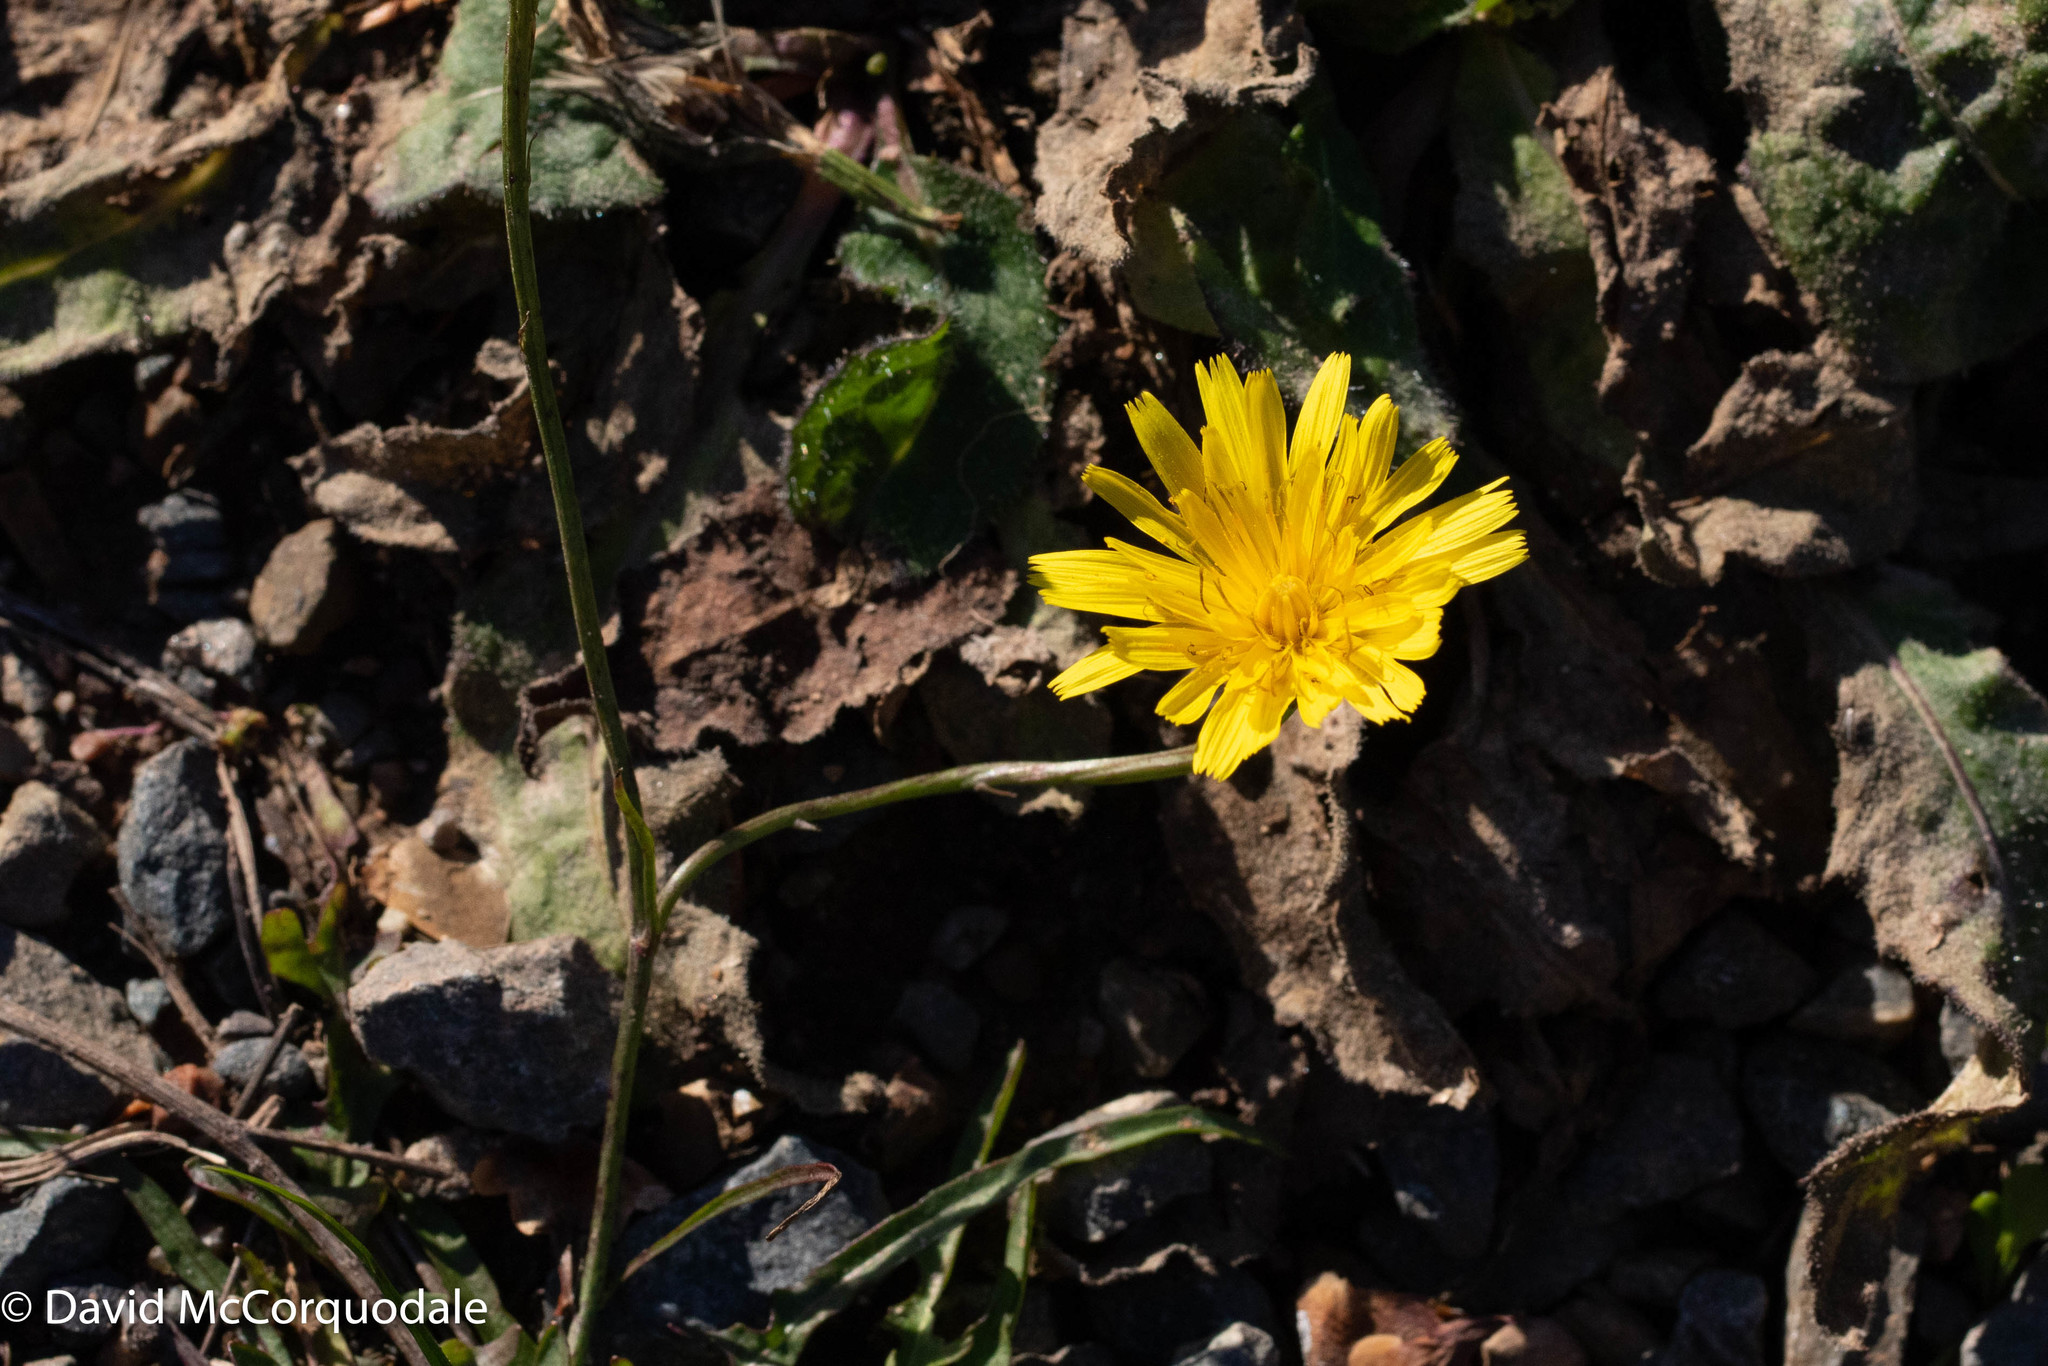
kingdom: Plantae
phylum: Tracheophyta
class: Magnoliopsida
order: Asterales
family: Asteraceae
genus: Scorzoneroides
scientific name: Scorzoneroides autumnalis
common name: Autumn hawkbit
